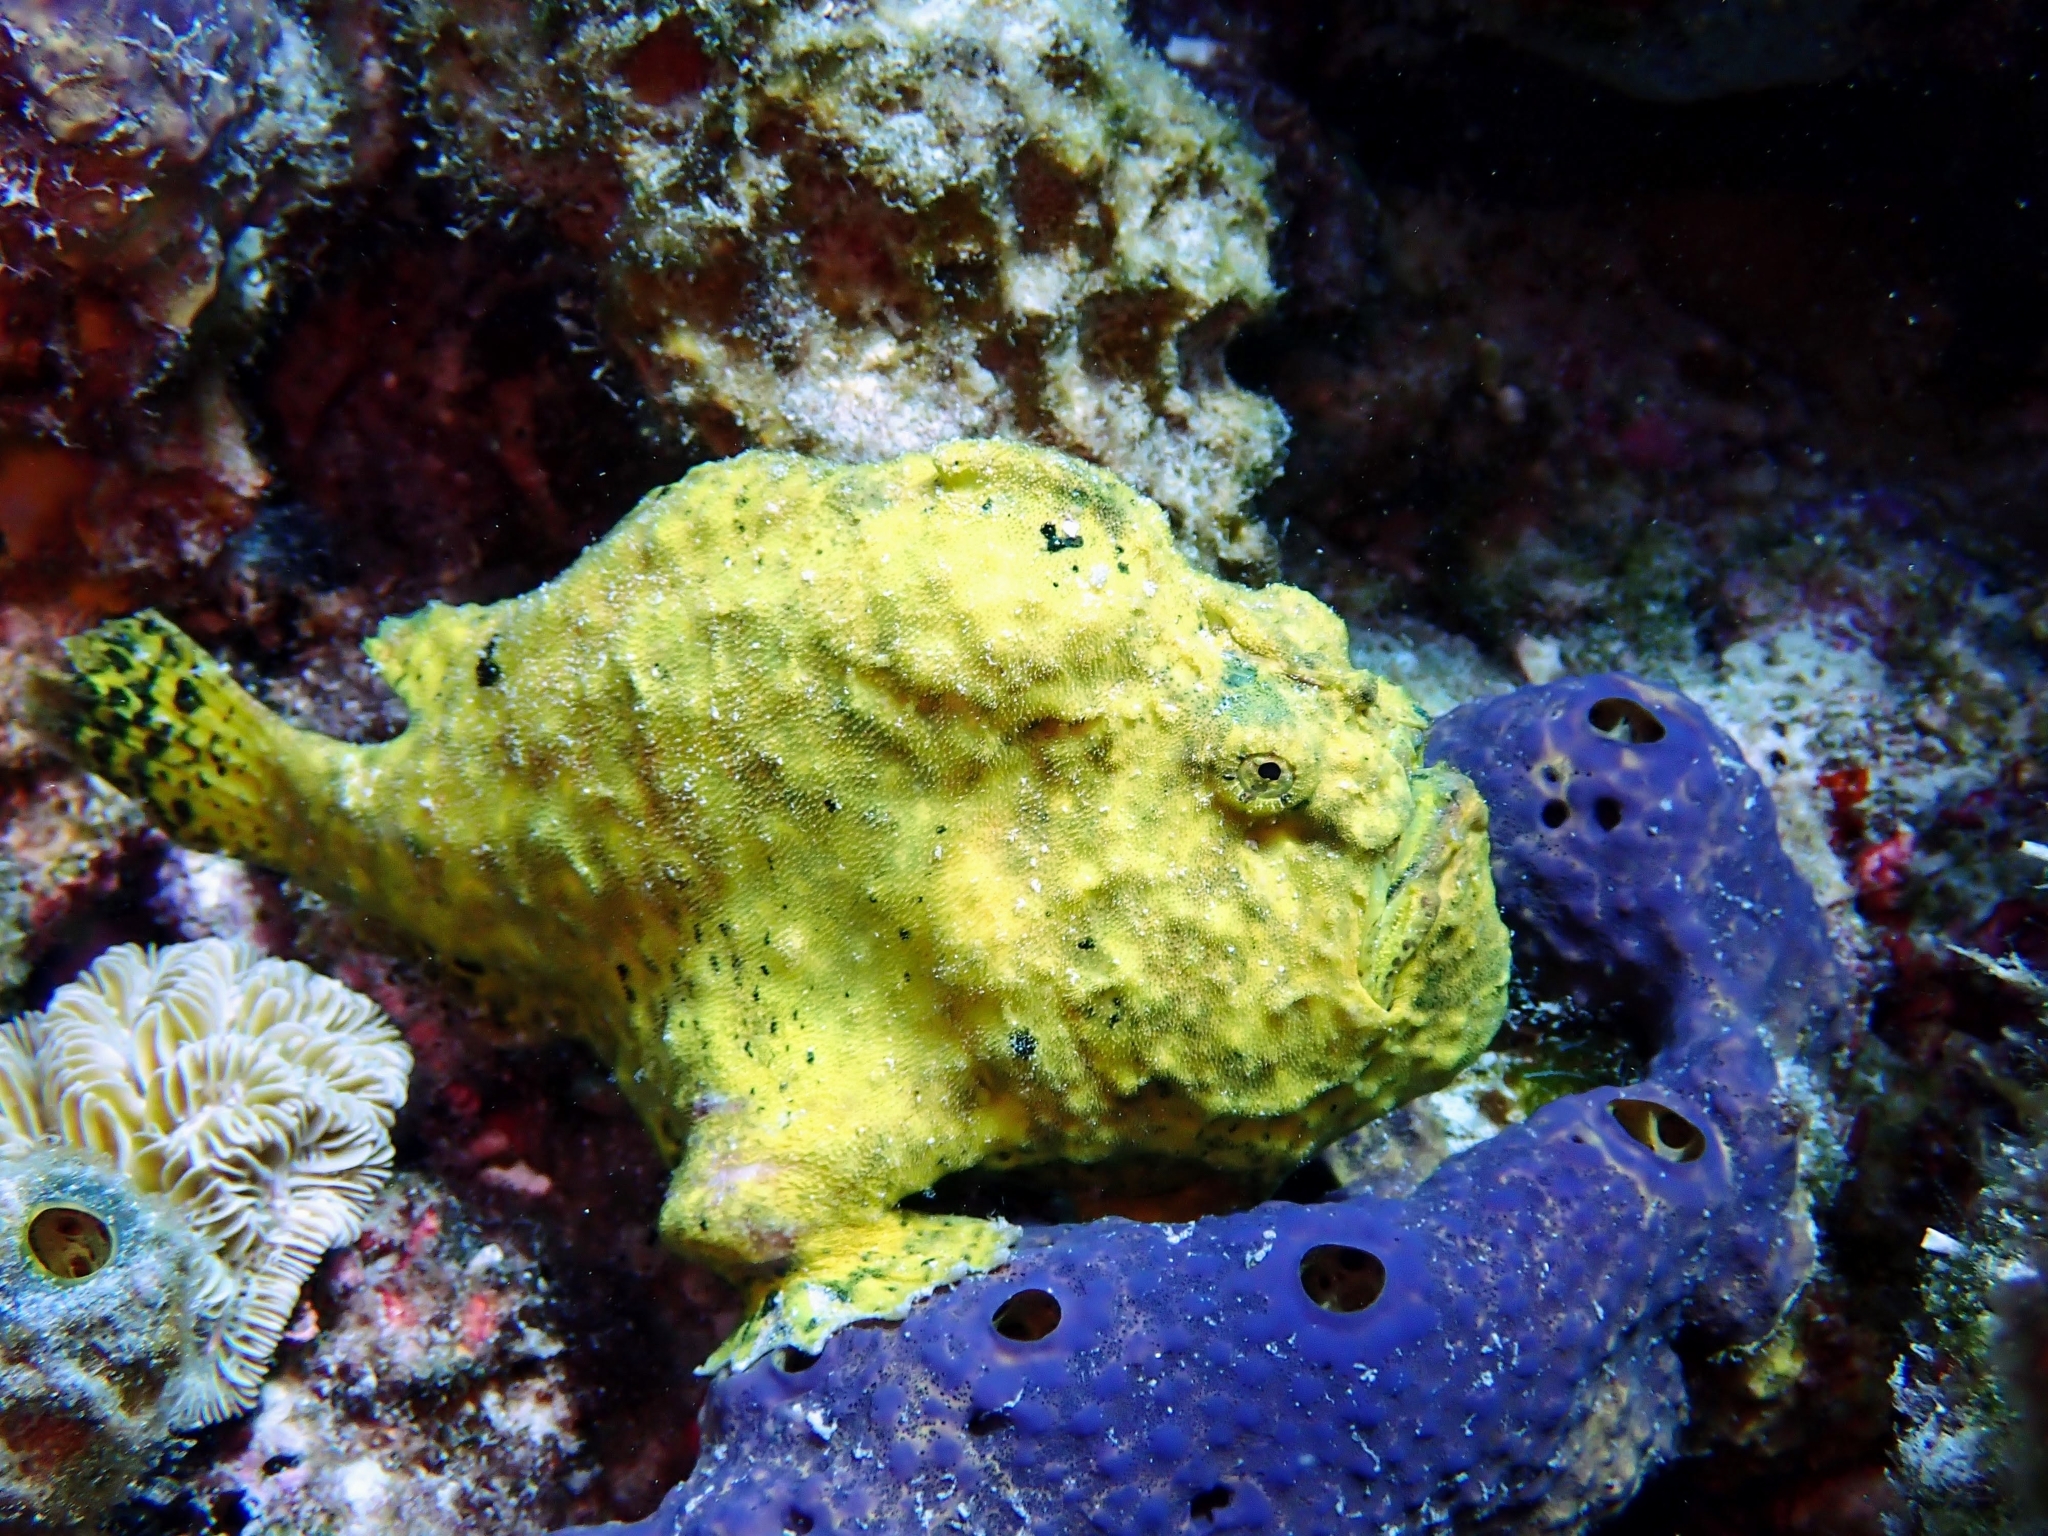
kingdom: Animalia
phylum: Chordata
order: Lophiiformes
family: Antennariidae
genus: Antennarius
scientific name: Antennarius multiocellatus
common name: Longlure frogfish
